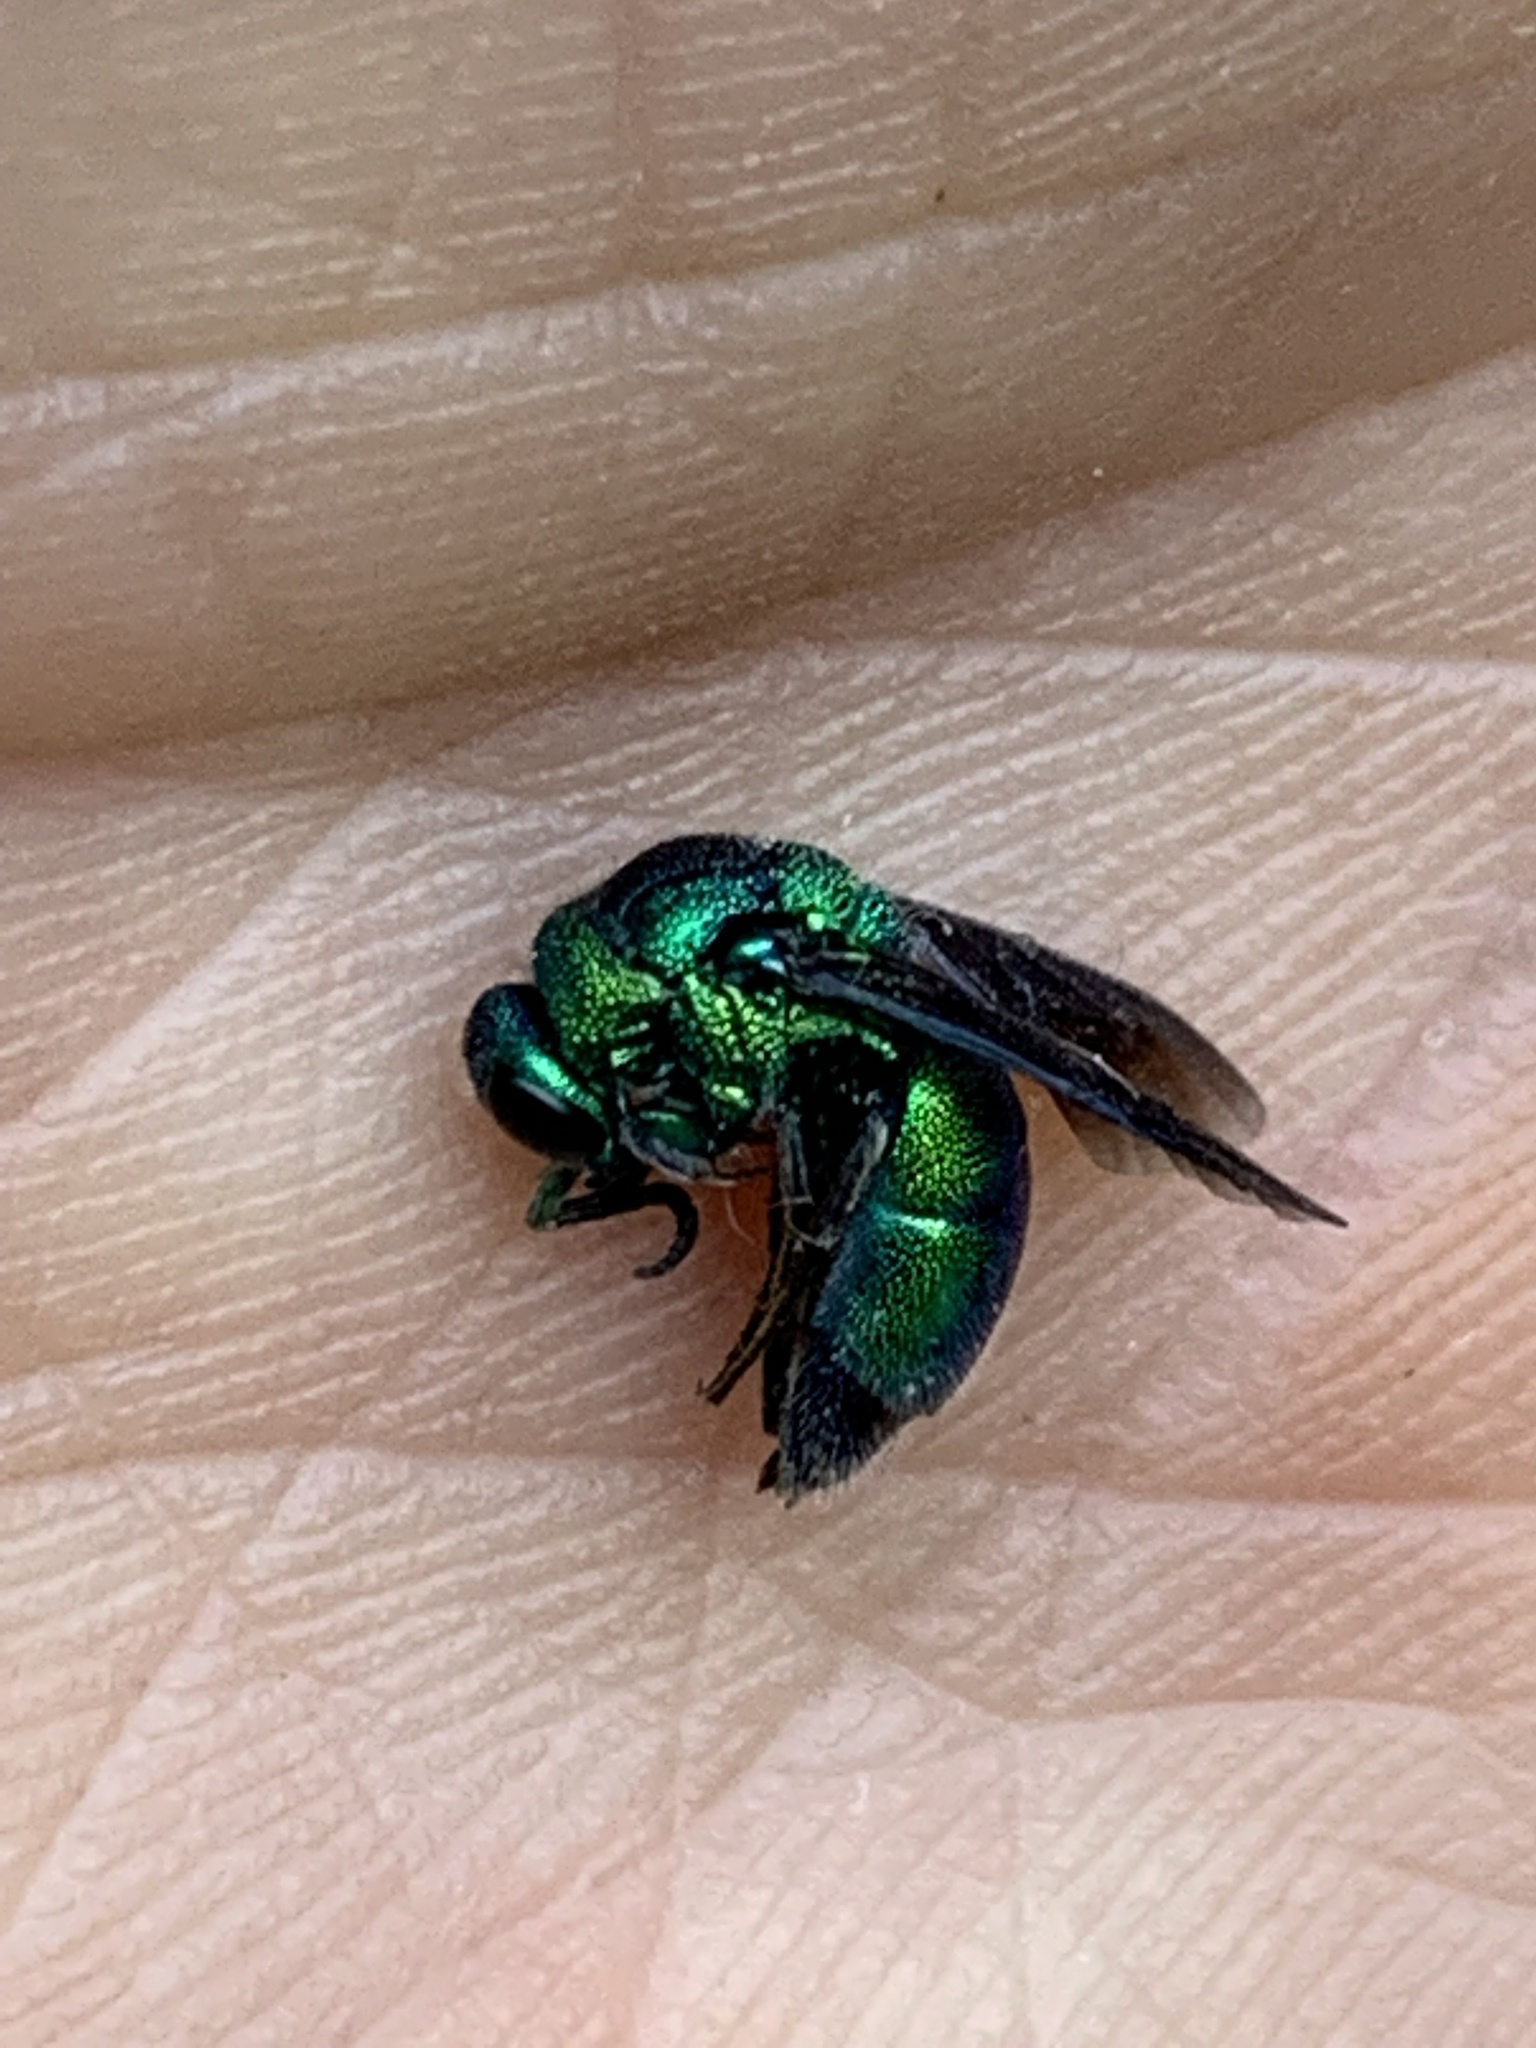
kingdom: Animalia
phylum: Arthropoda
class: Insecta
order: Hymenoptera
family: Chrysididae
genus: Chrysis
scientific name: Chrysis angolensis
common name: Cuckoo wasp
